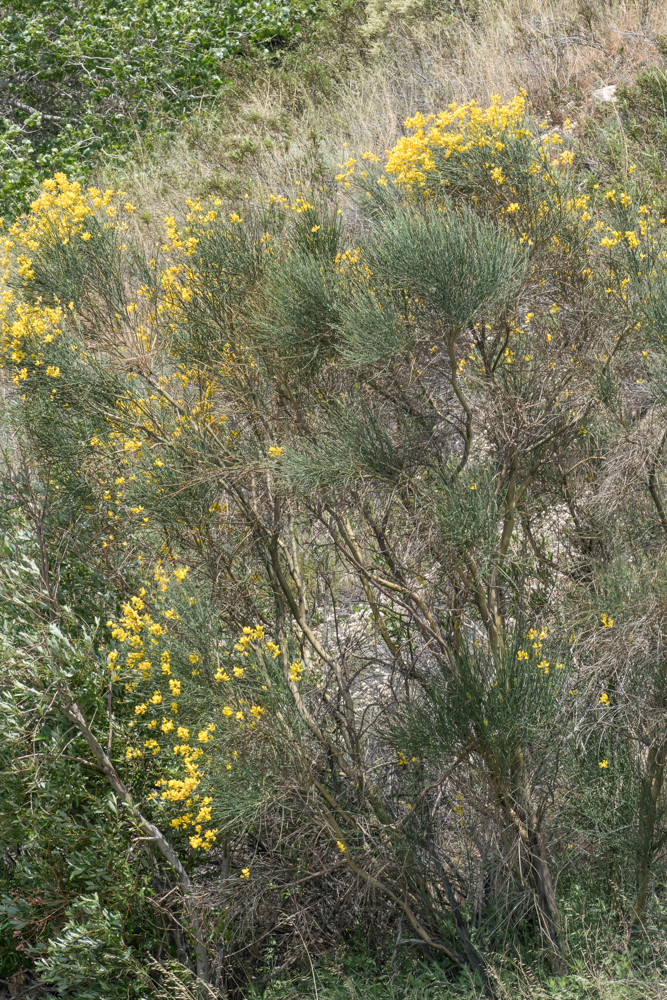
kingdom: Plantae
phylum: Tracheophyta
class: Magnoliopsida
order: Fabales
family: Fabaceae
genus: Spartium
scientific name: Spartium junceum
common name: Spanish broom
